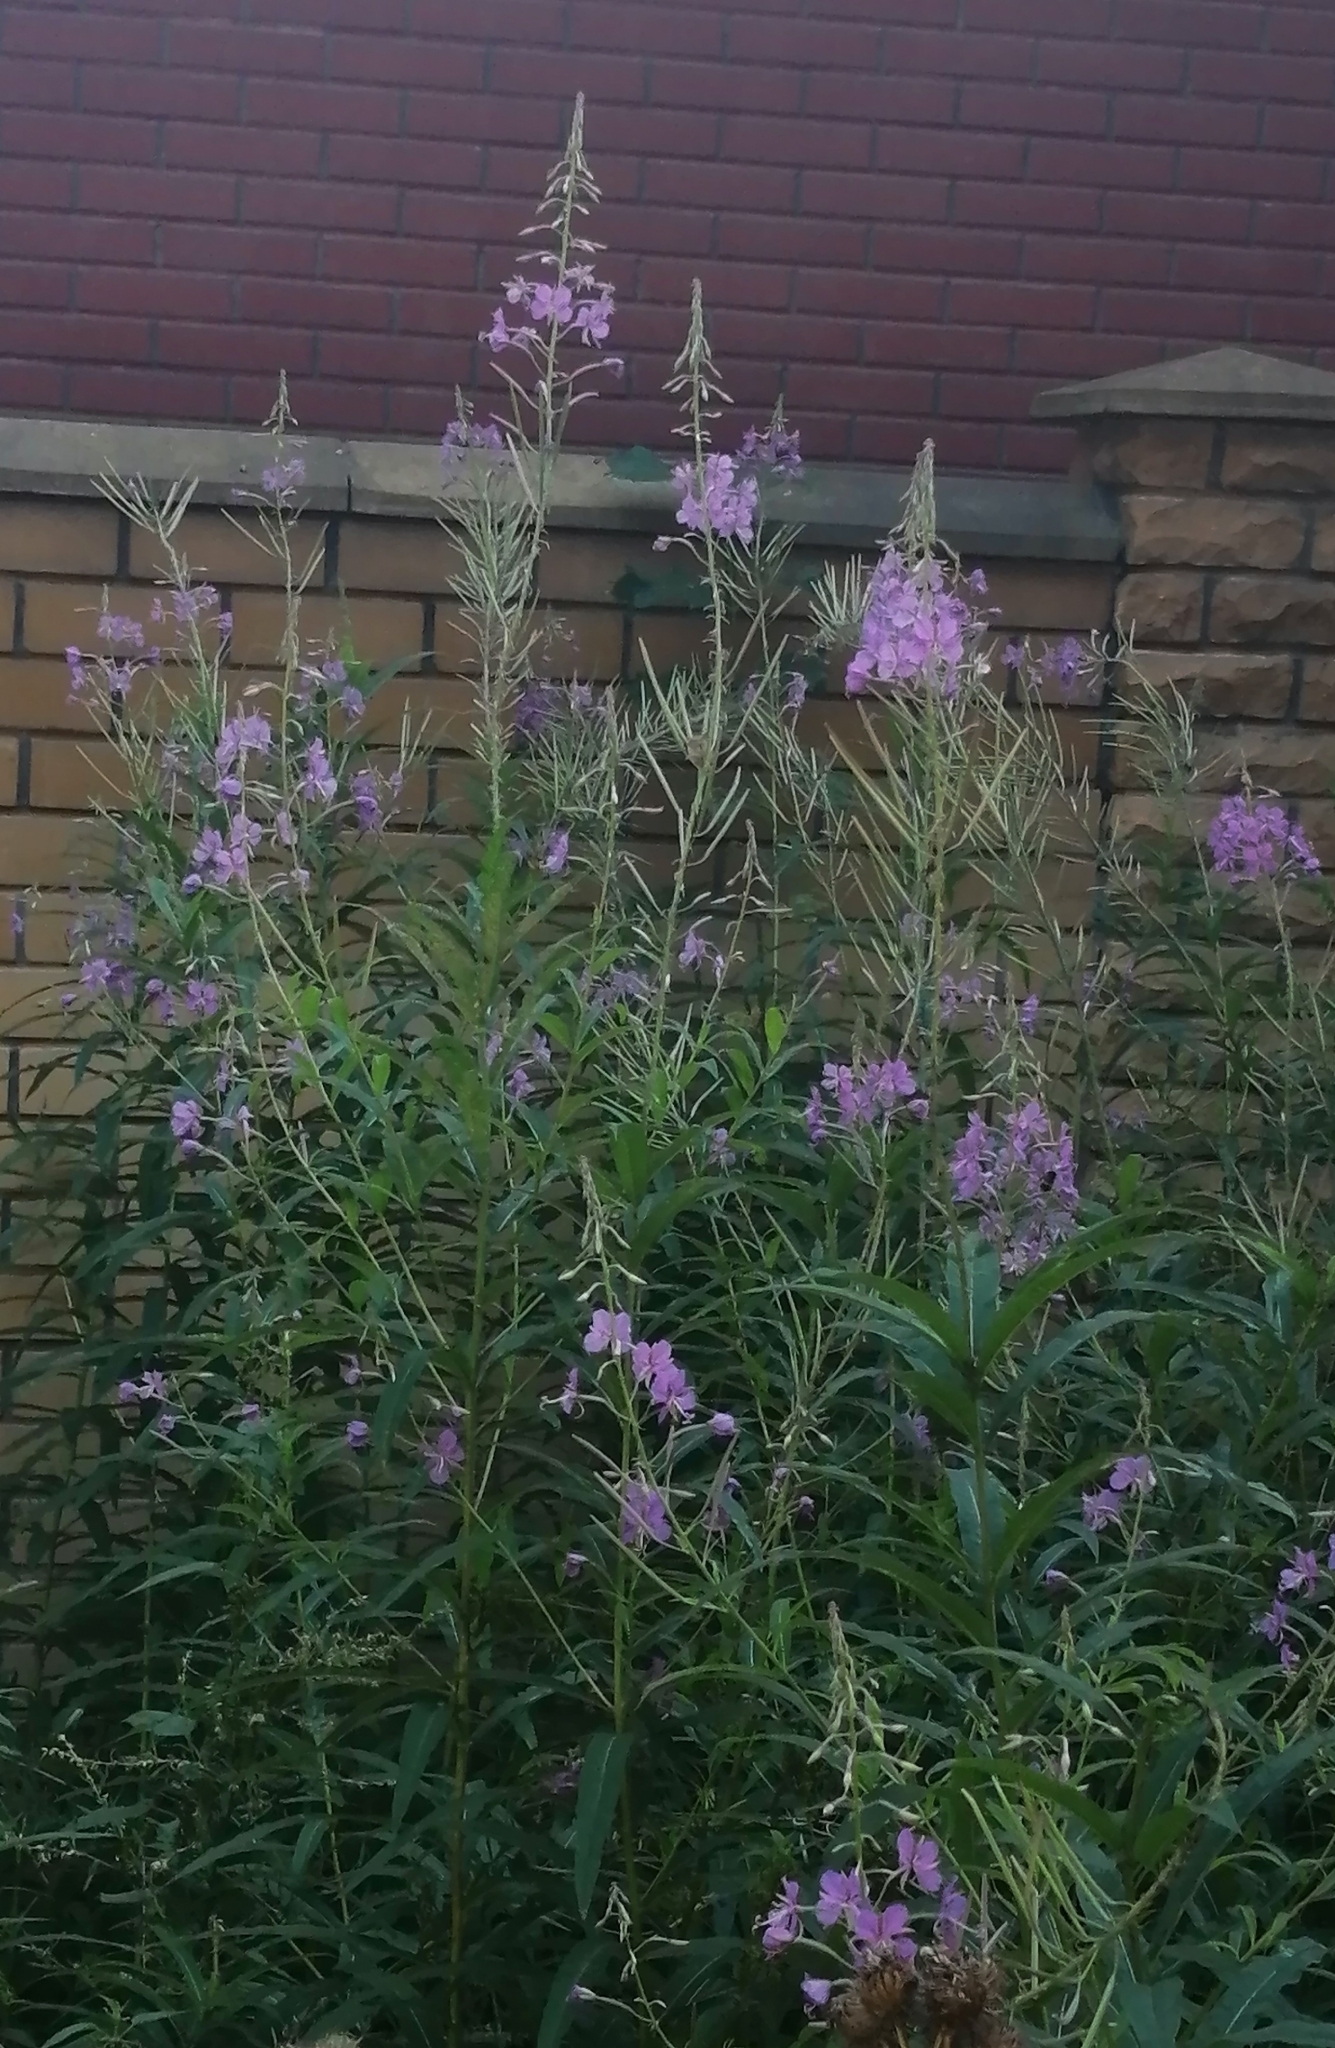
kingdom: Plantae
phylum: Tracheophyta
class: Magnoliopsida
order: Myrtales
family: Onagraceae
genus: Chamaenerion
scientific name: Chamaenerion angustifolium
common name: Fireweed
